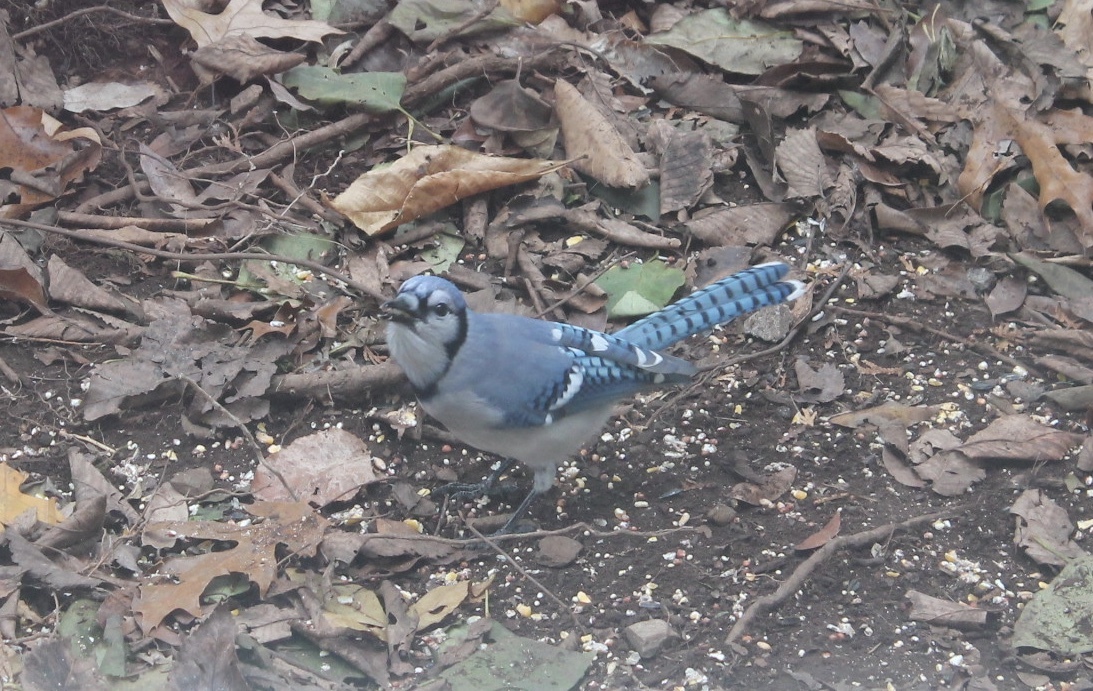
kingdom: Animalia
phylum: Chordata
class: Aves
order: Passeriformes
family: Corvidae
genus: Cyanocitta
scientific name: Cyanocitta cristata
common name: Blue jay
